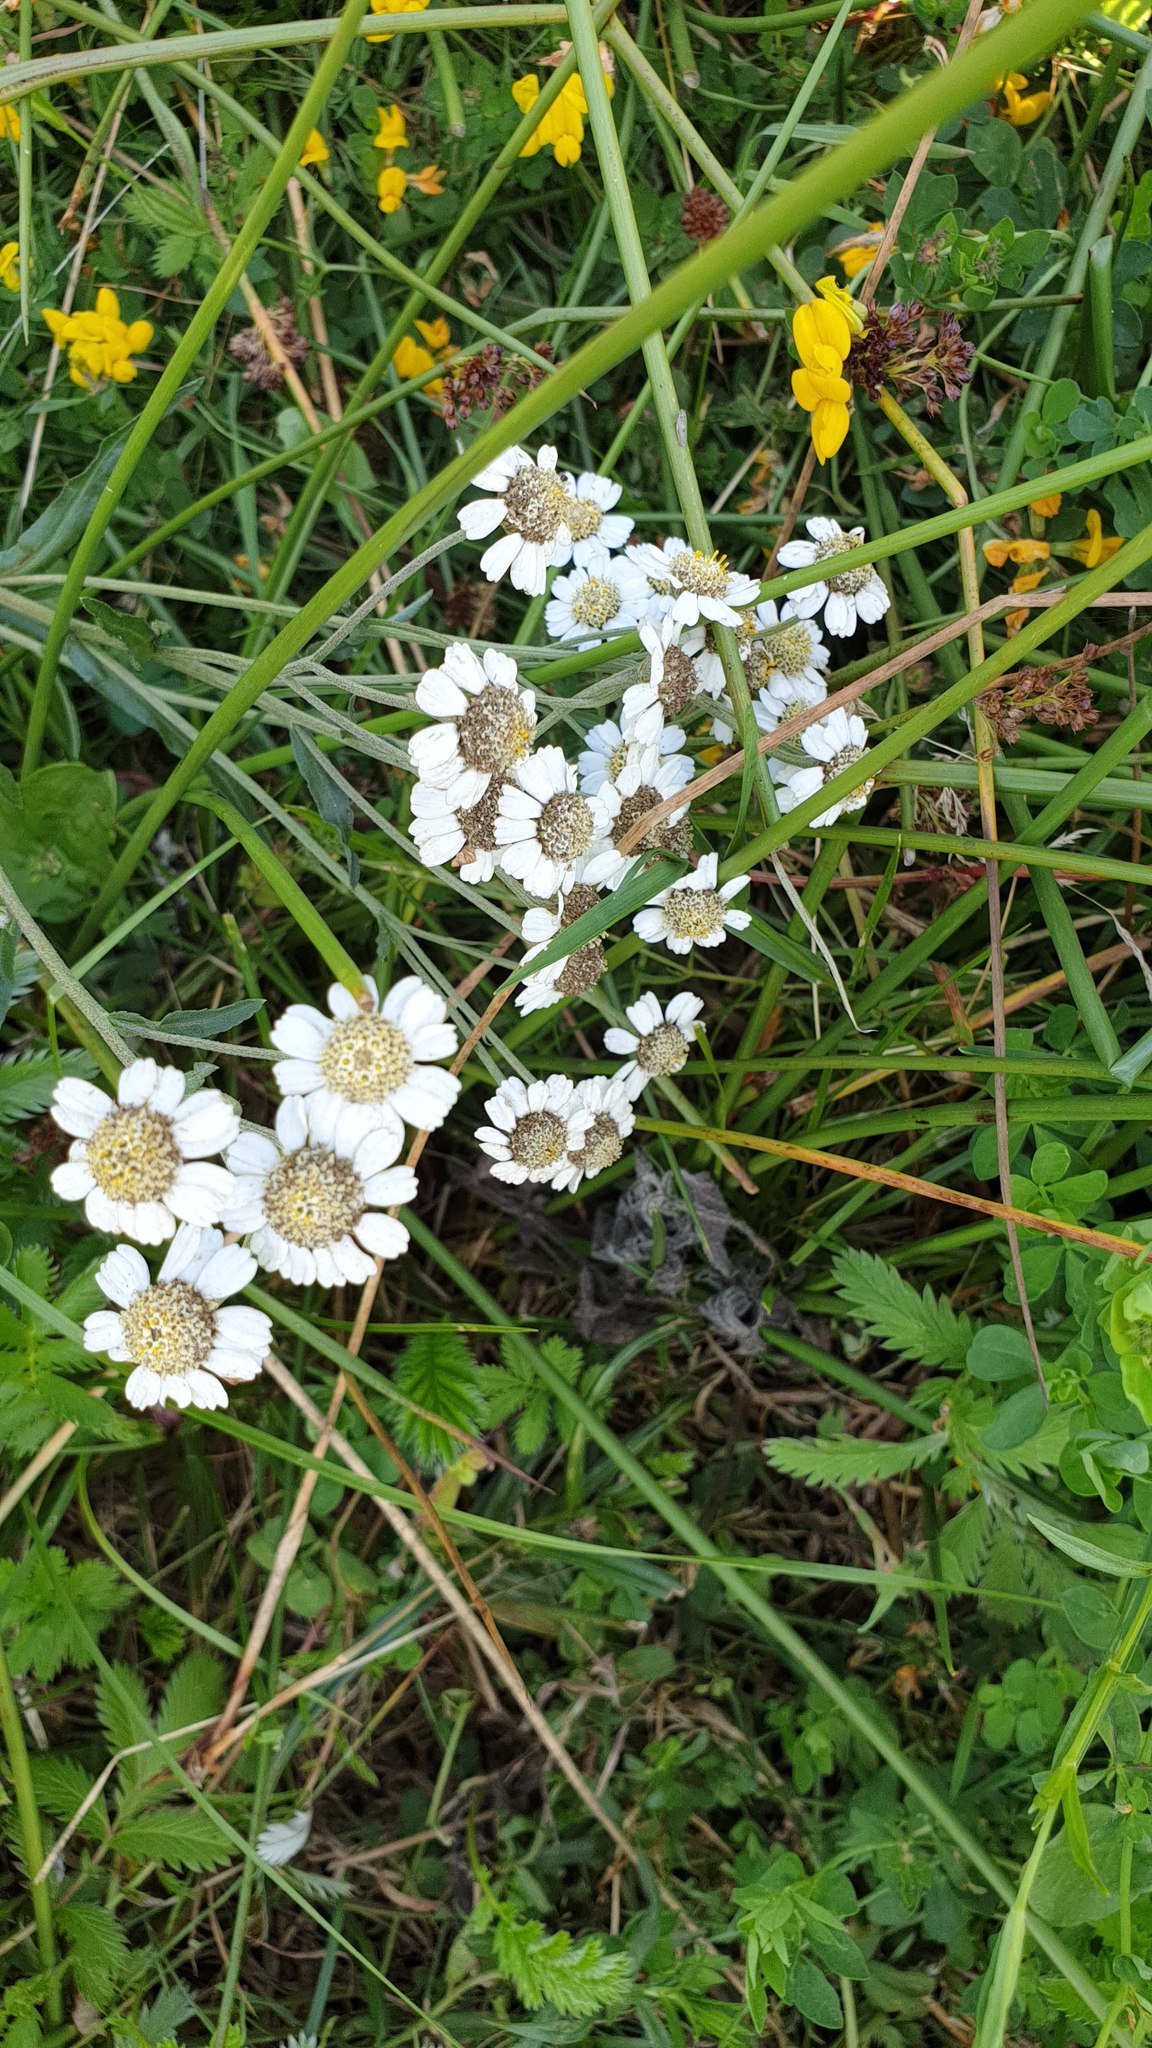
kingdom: Plantae
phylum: Tracheophyta
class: Magnoliopsida
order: Asterales
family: Asteraceae
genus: Achillea
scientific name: Achillea ptarmica
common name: Sneezeweed
